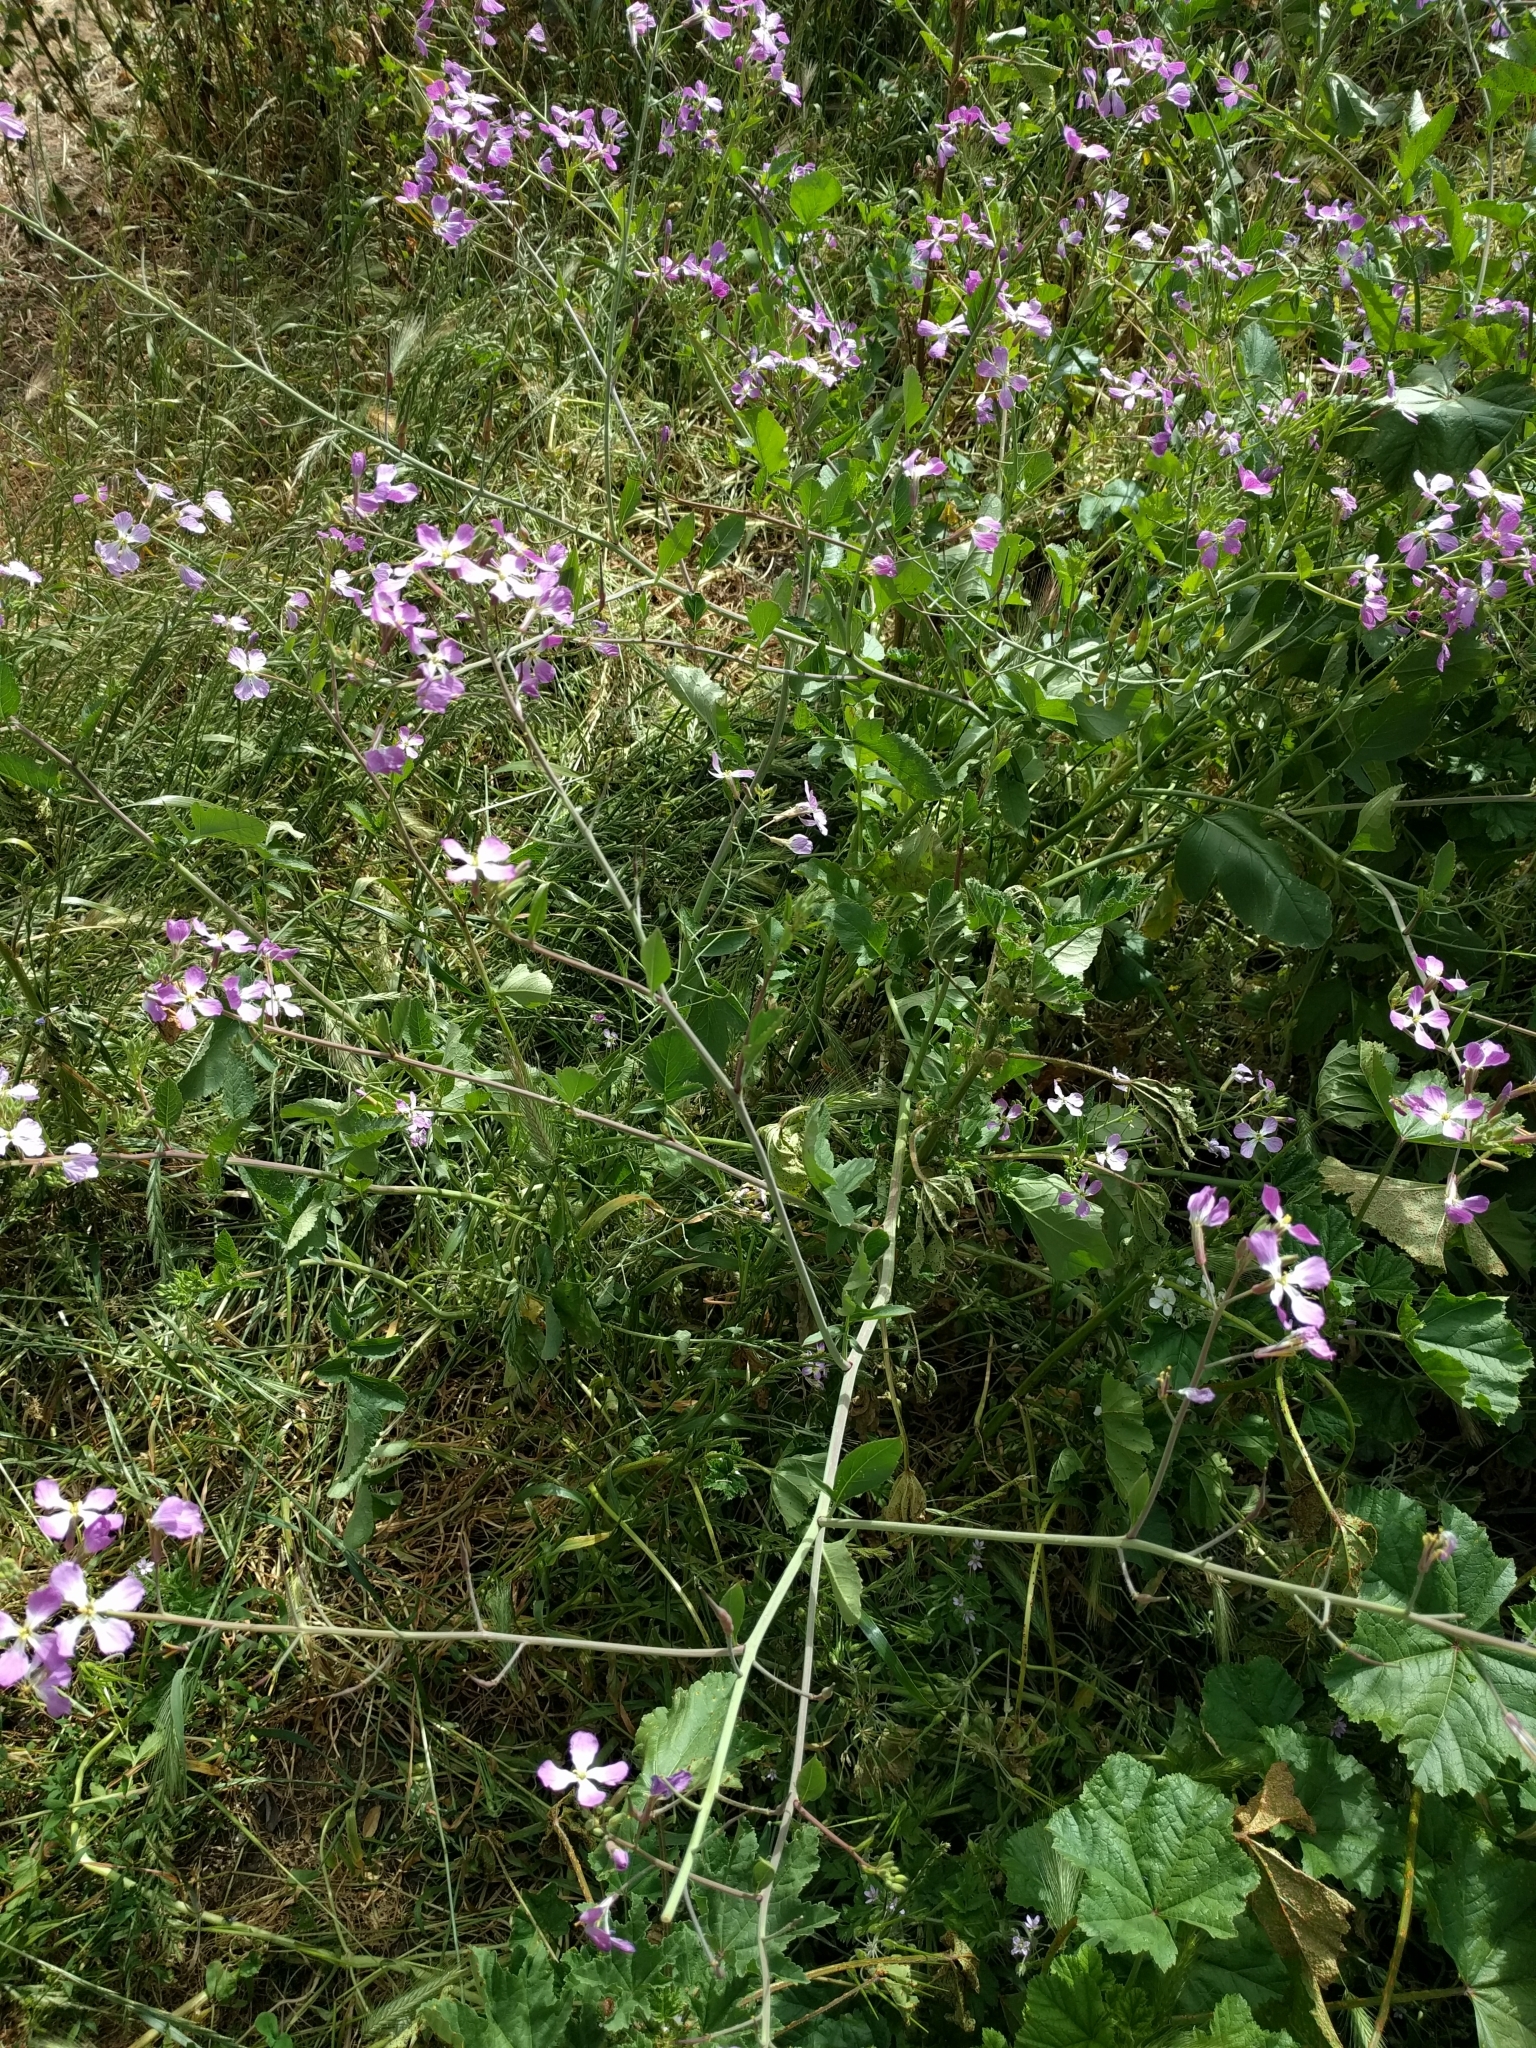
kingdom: Plantae
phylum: Tracheophyta
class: Magnoliopsida
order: Brassicales
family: Brassicaceae
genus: Raphanus
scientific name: Raphanus sativus
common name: Cultivated radish
